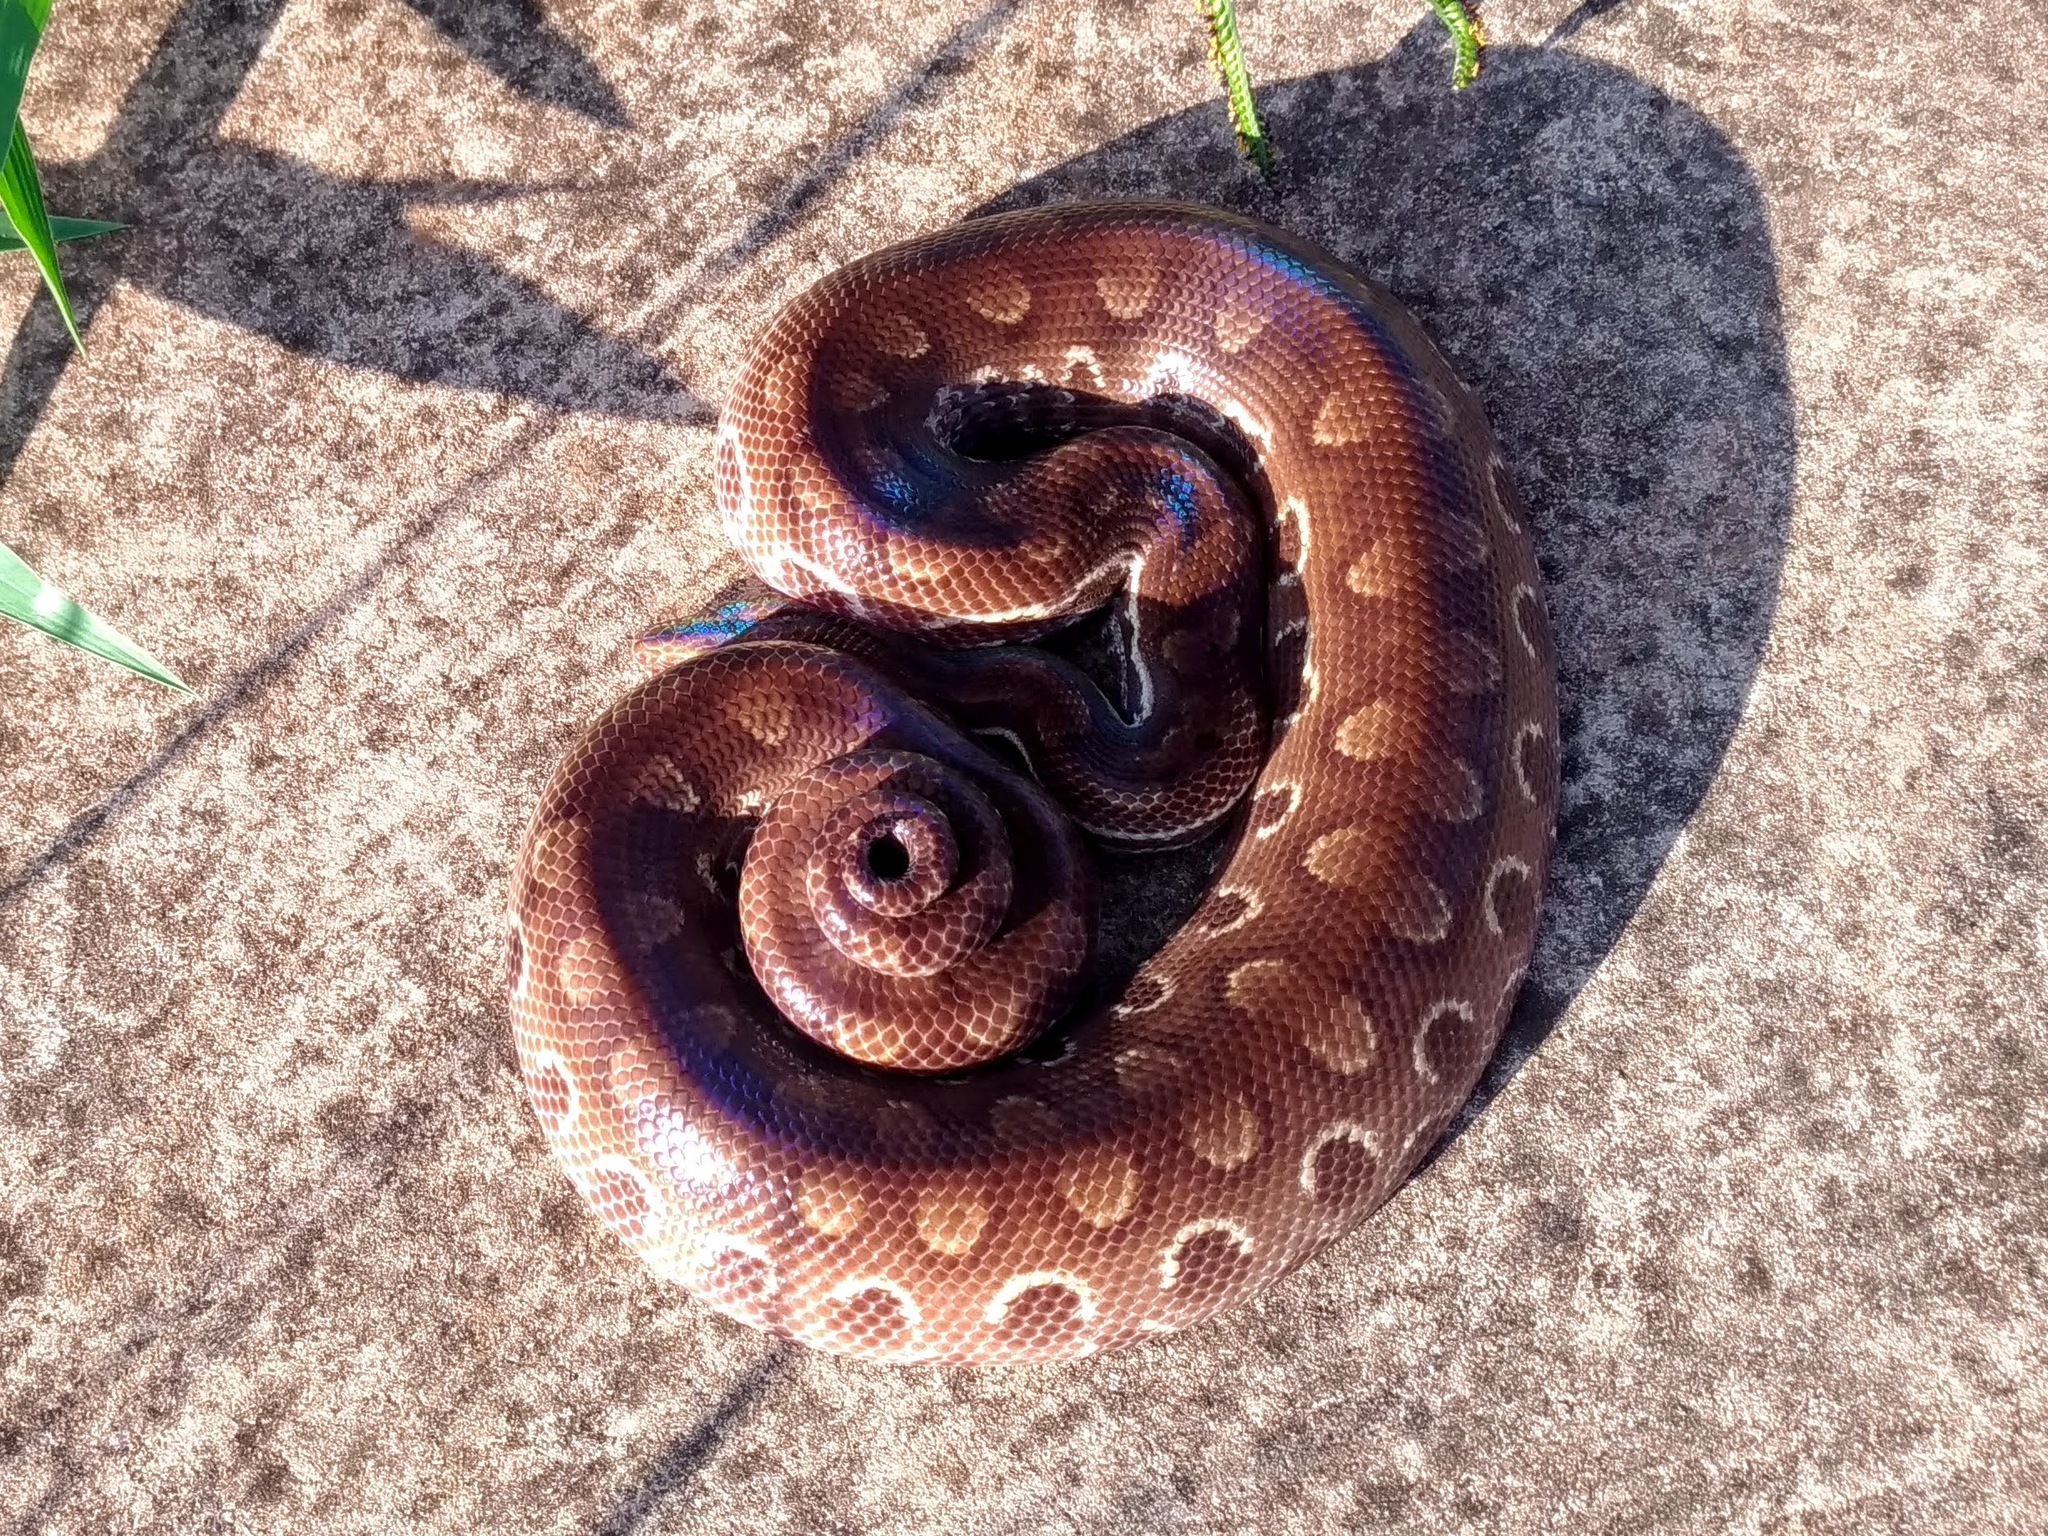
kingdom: Animalia
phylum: Chordata
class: Squamata
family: Boidae
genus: Epicrates
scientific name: Epicrates crassus
